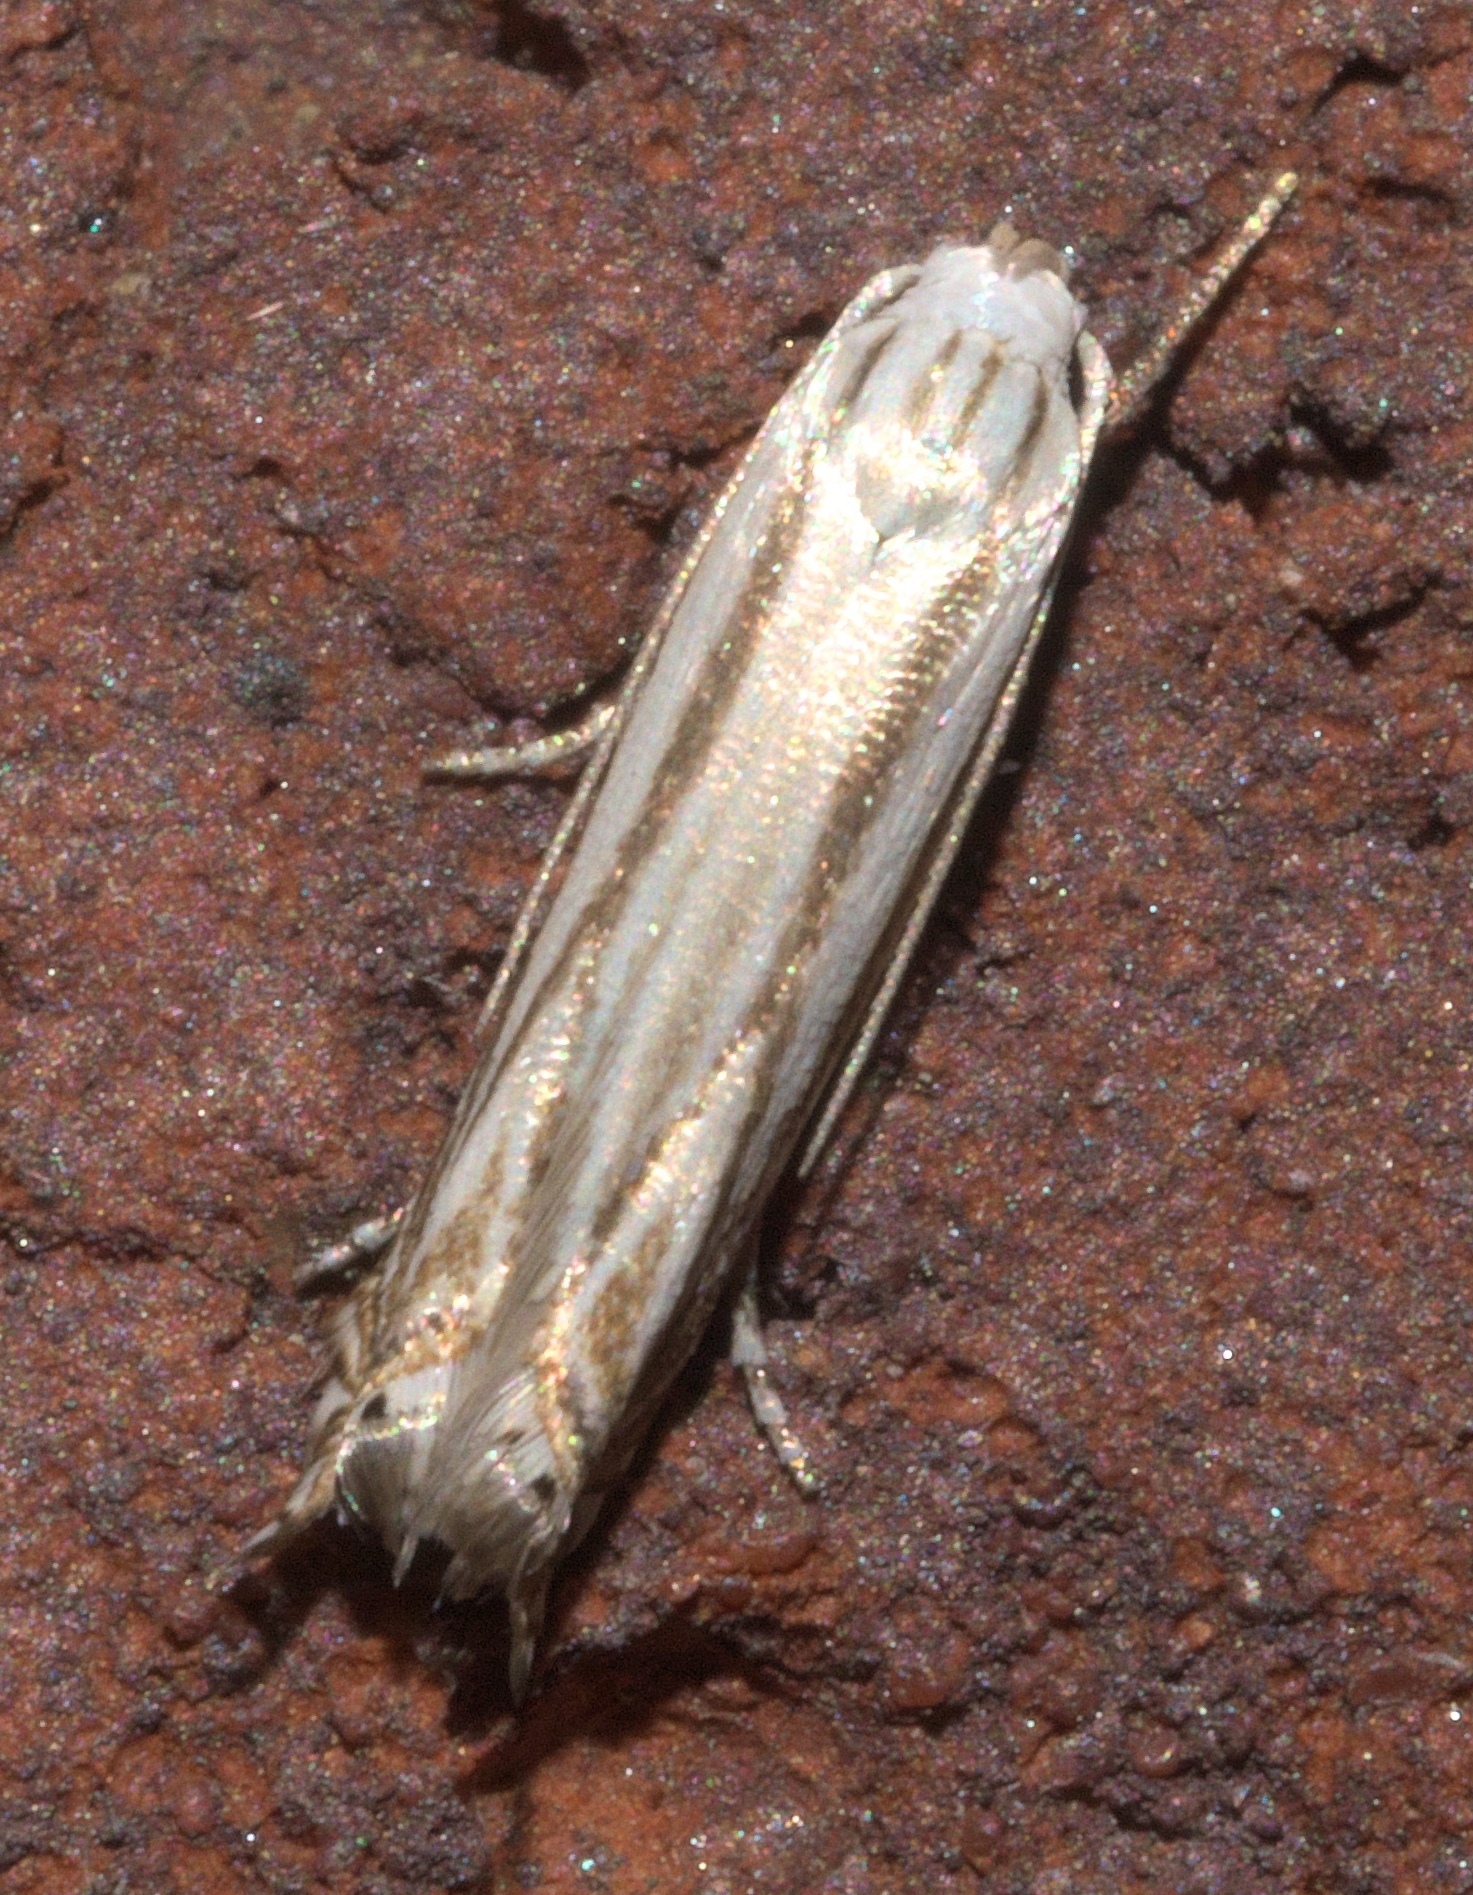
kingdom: Animalia
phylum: Arthropoda
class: Insecta
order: Lepidoptera
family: Gelechiidae
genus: Polyhymno
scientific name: Polyhymno luteostrigella
